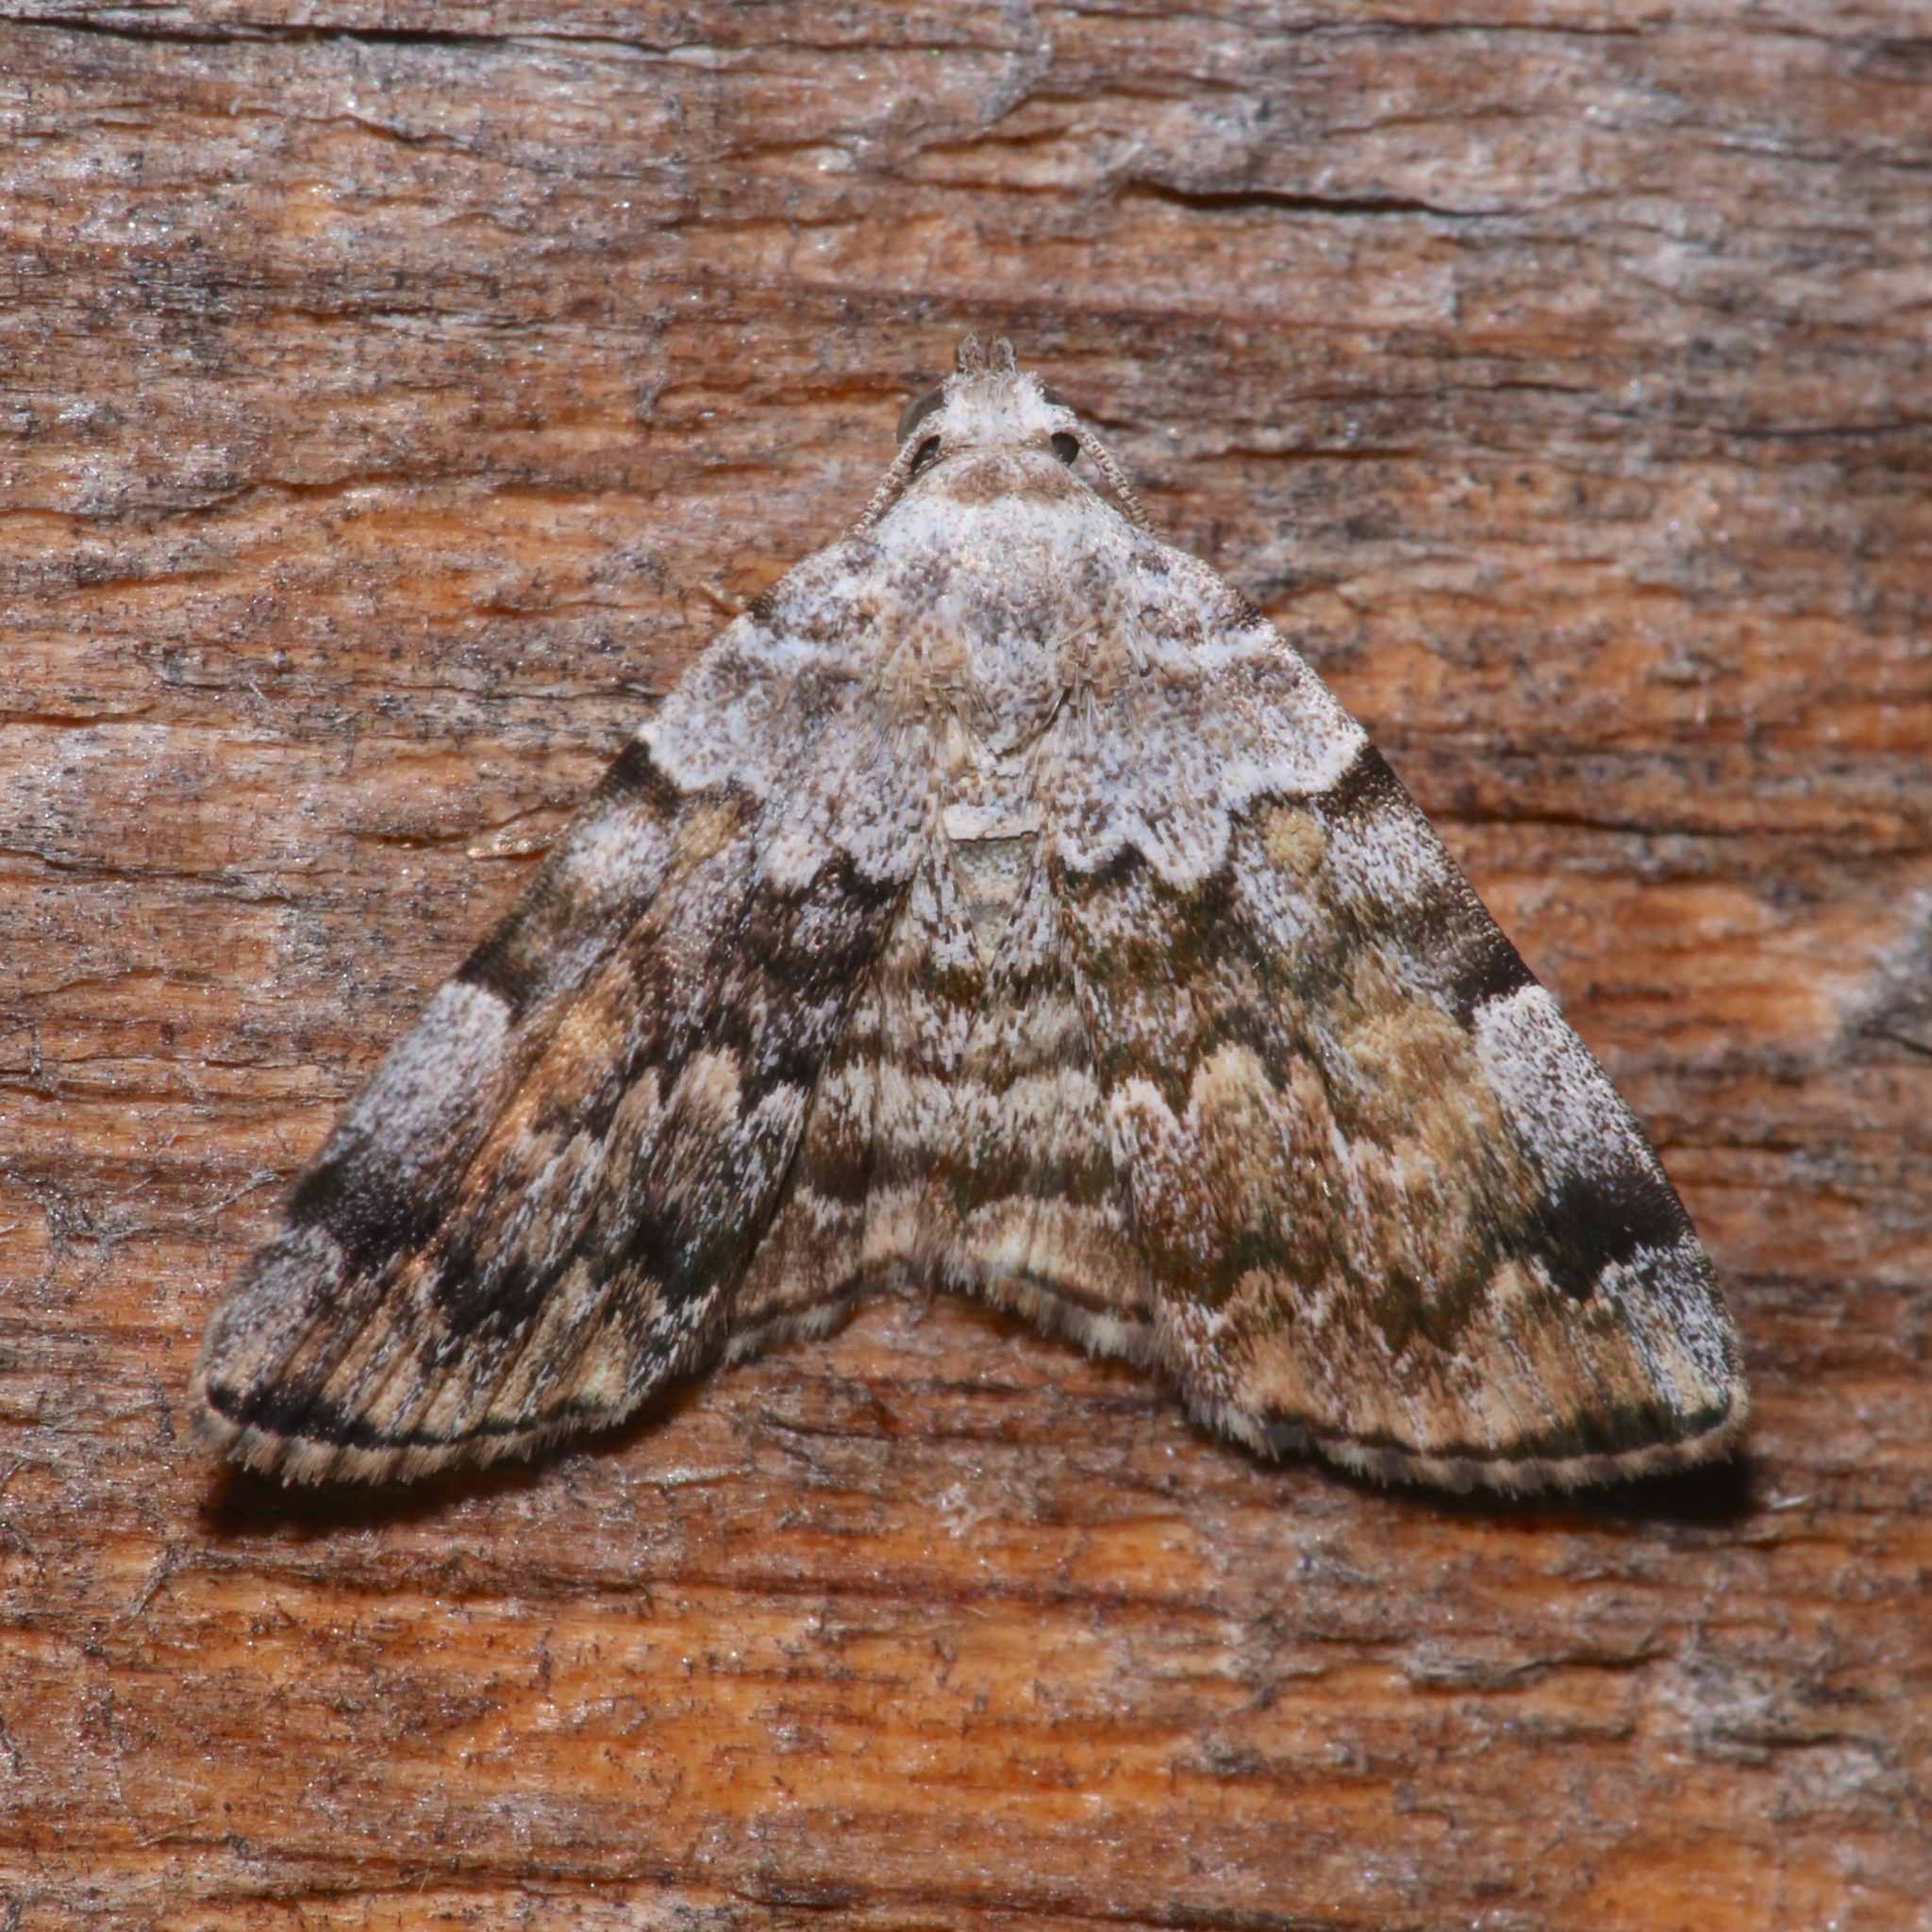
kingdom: Animalia
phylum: Arthropoda
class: Insecta
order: Lepidoptera
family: Erebidae
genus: Idia
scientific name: Idia americalis
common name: American idia moth
